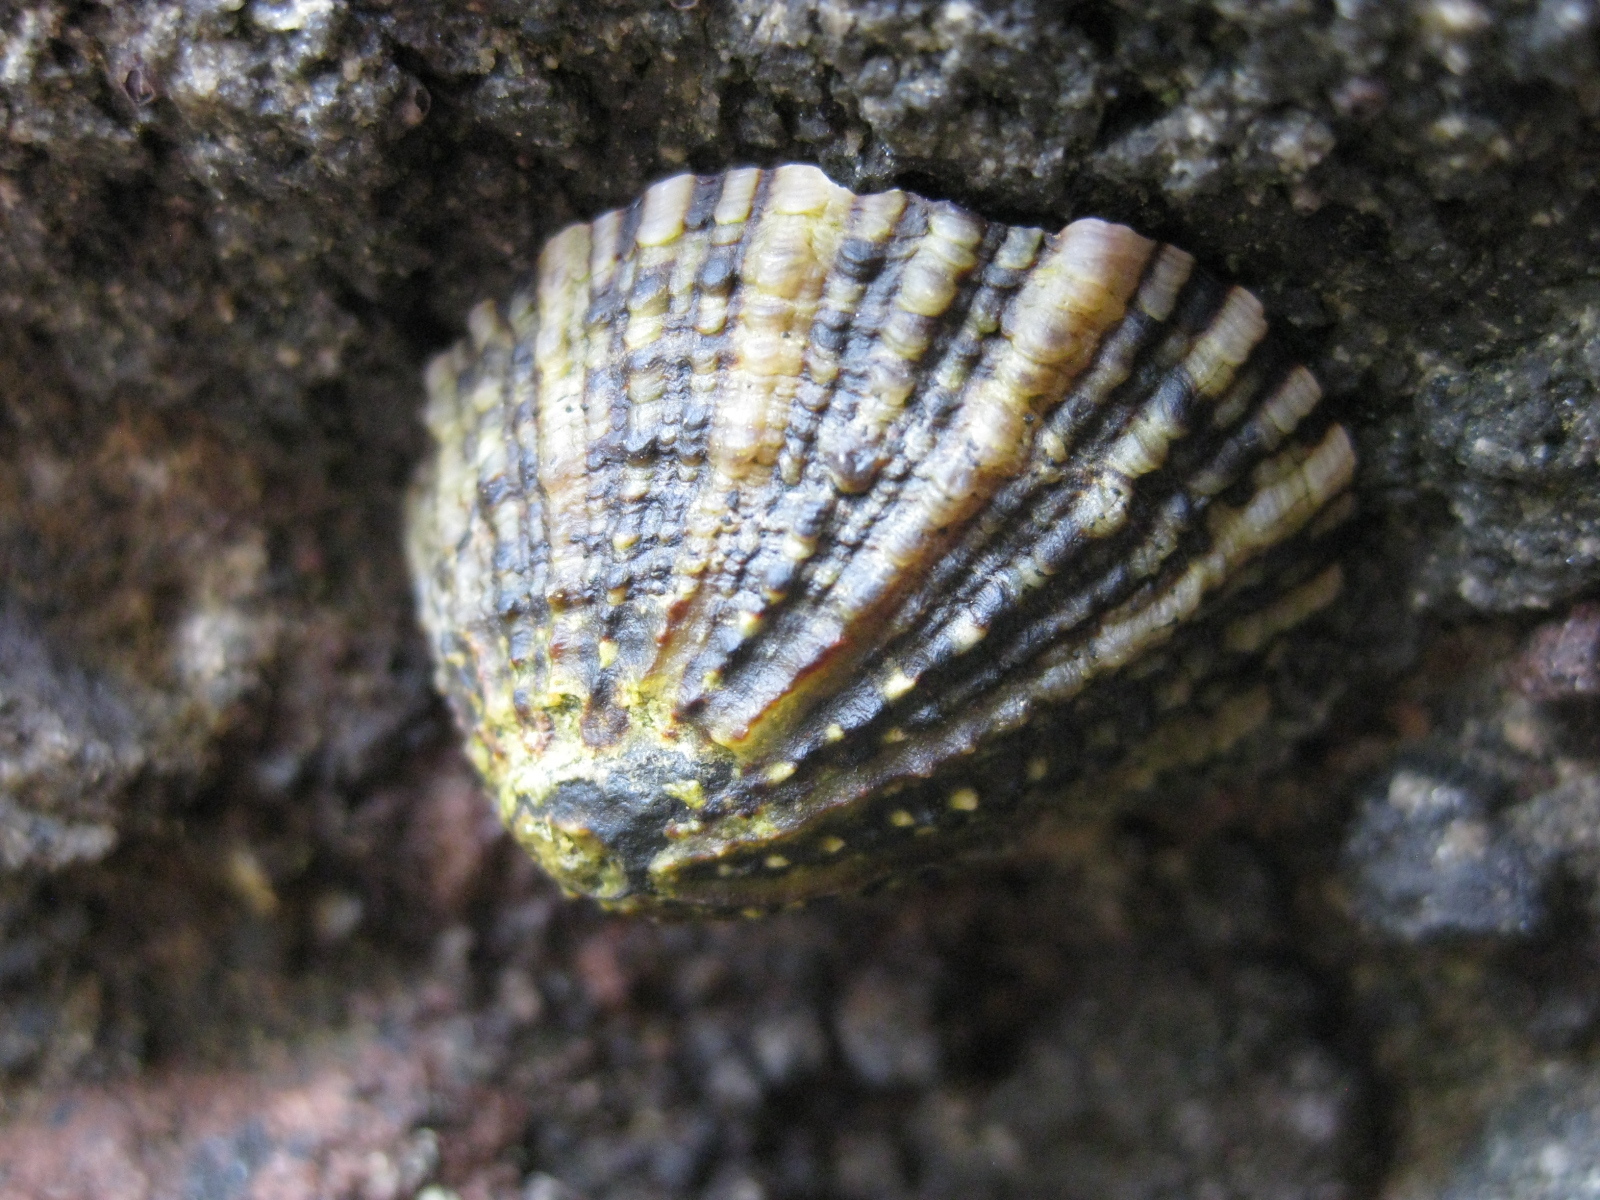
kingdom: Animalia
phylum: Mollusca
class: Gastropoda
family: Nacellidae
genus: Cellana
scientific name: Cellana ornata
